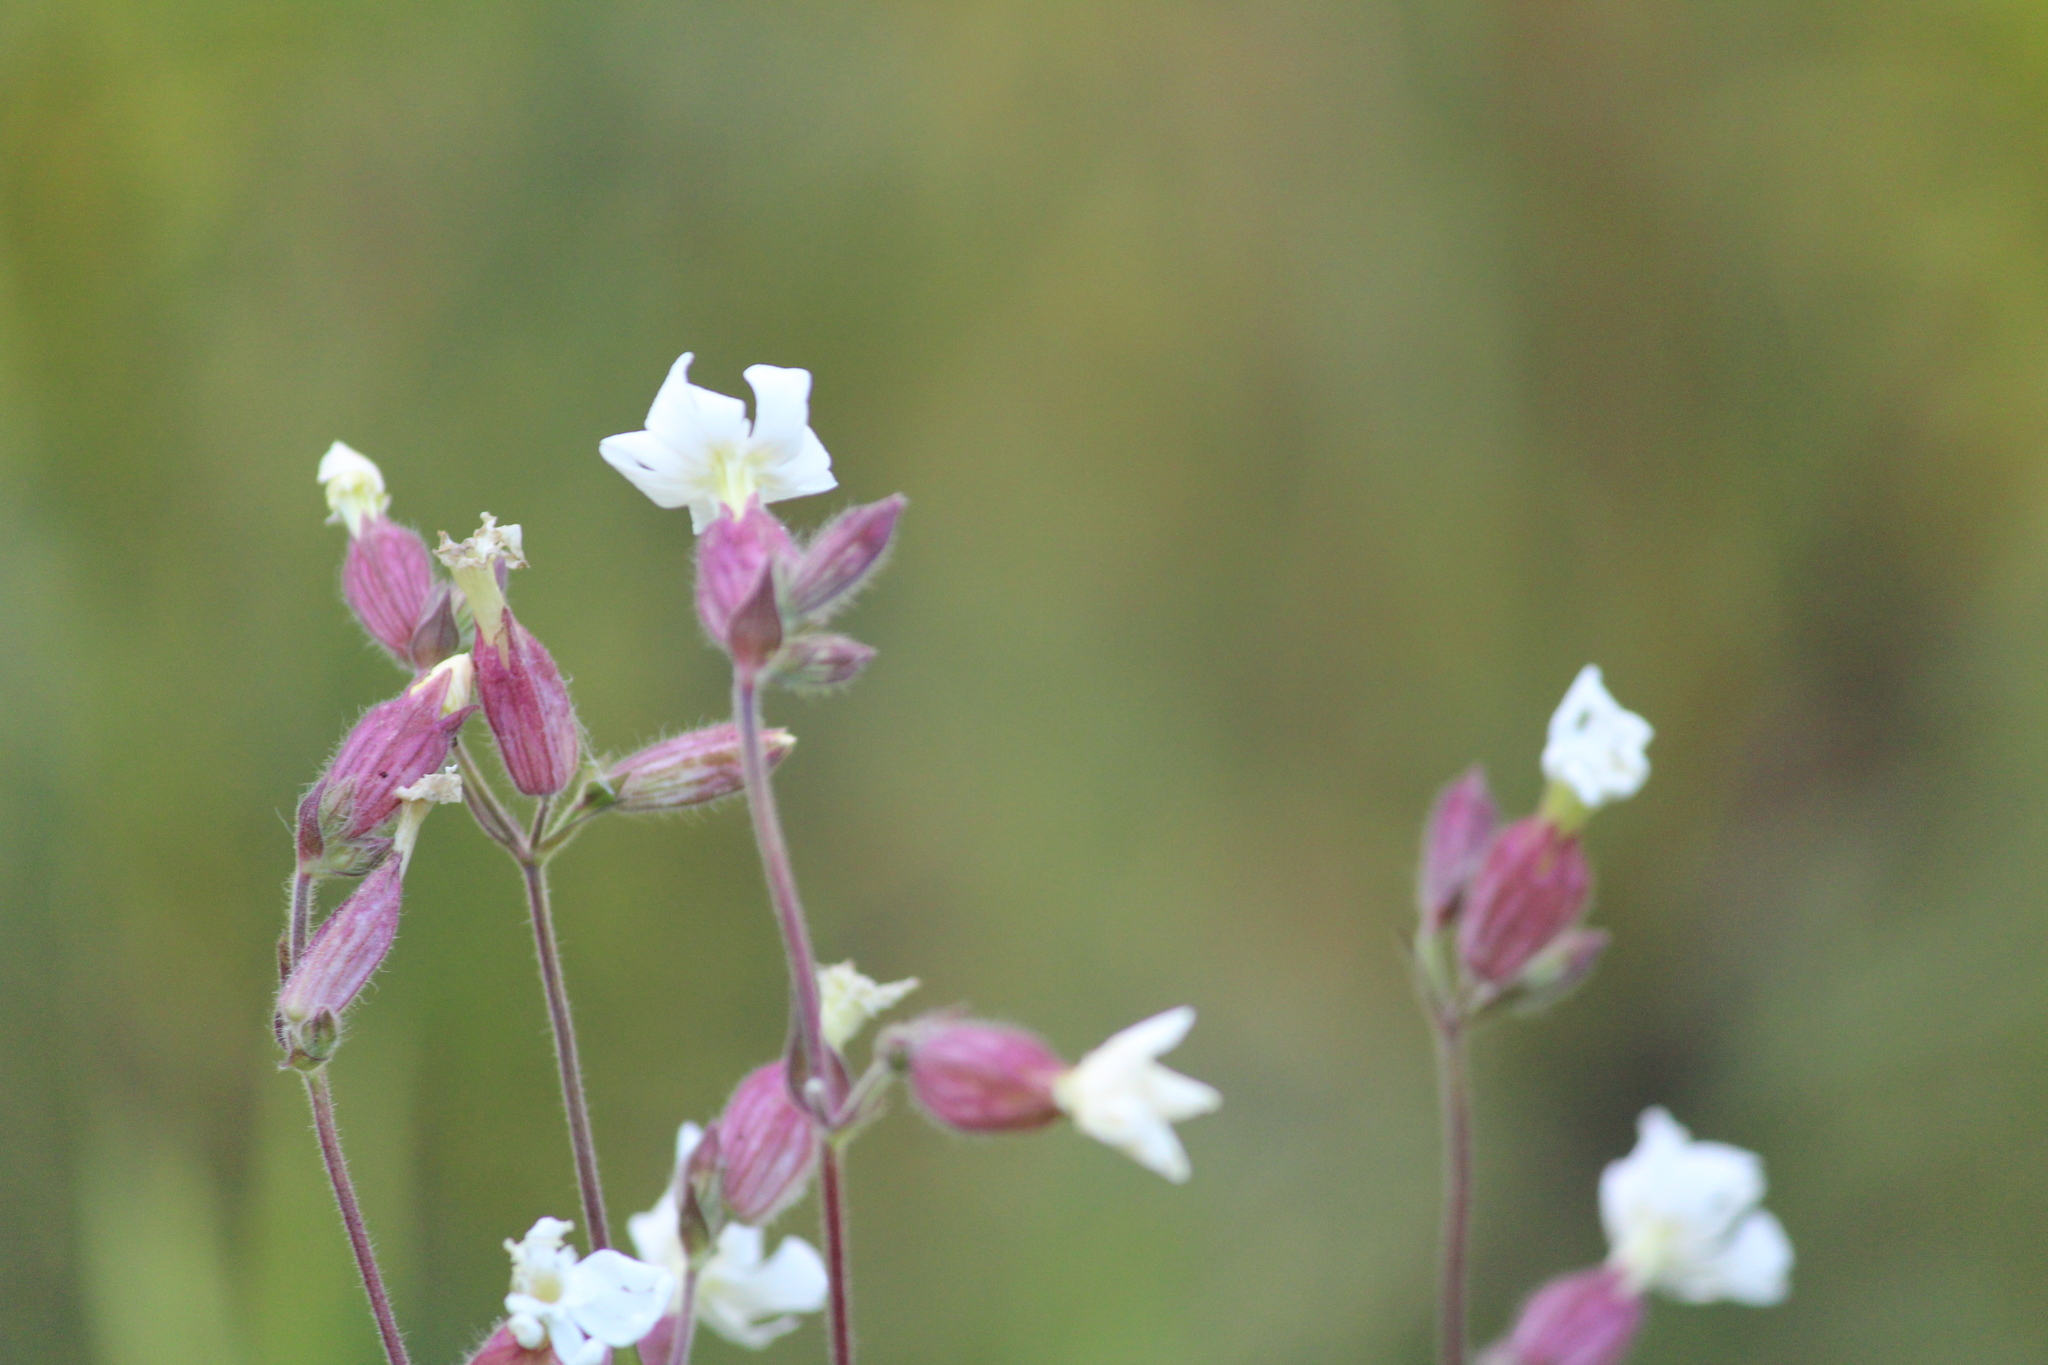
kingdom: Plantae
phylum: Tracheophyta
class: Magnoliopsida
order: Caryophyllales
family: Caryophyllaceae
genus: Silene
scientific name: Silene latifolia
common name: White campion
